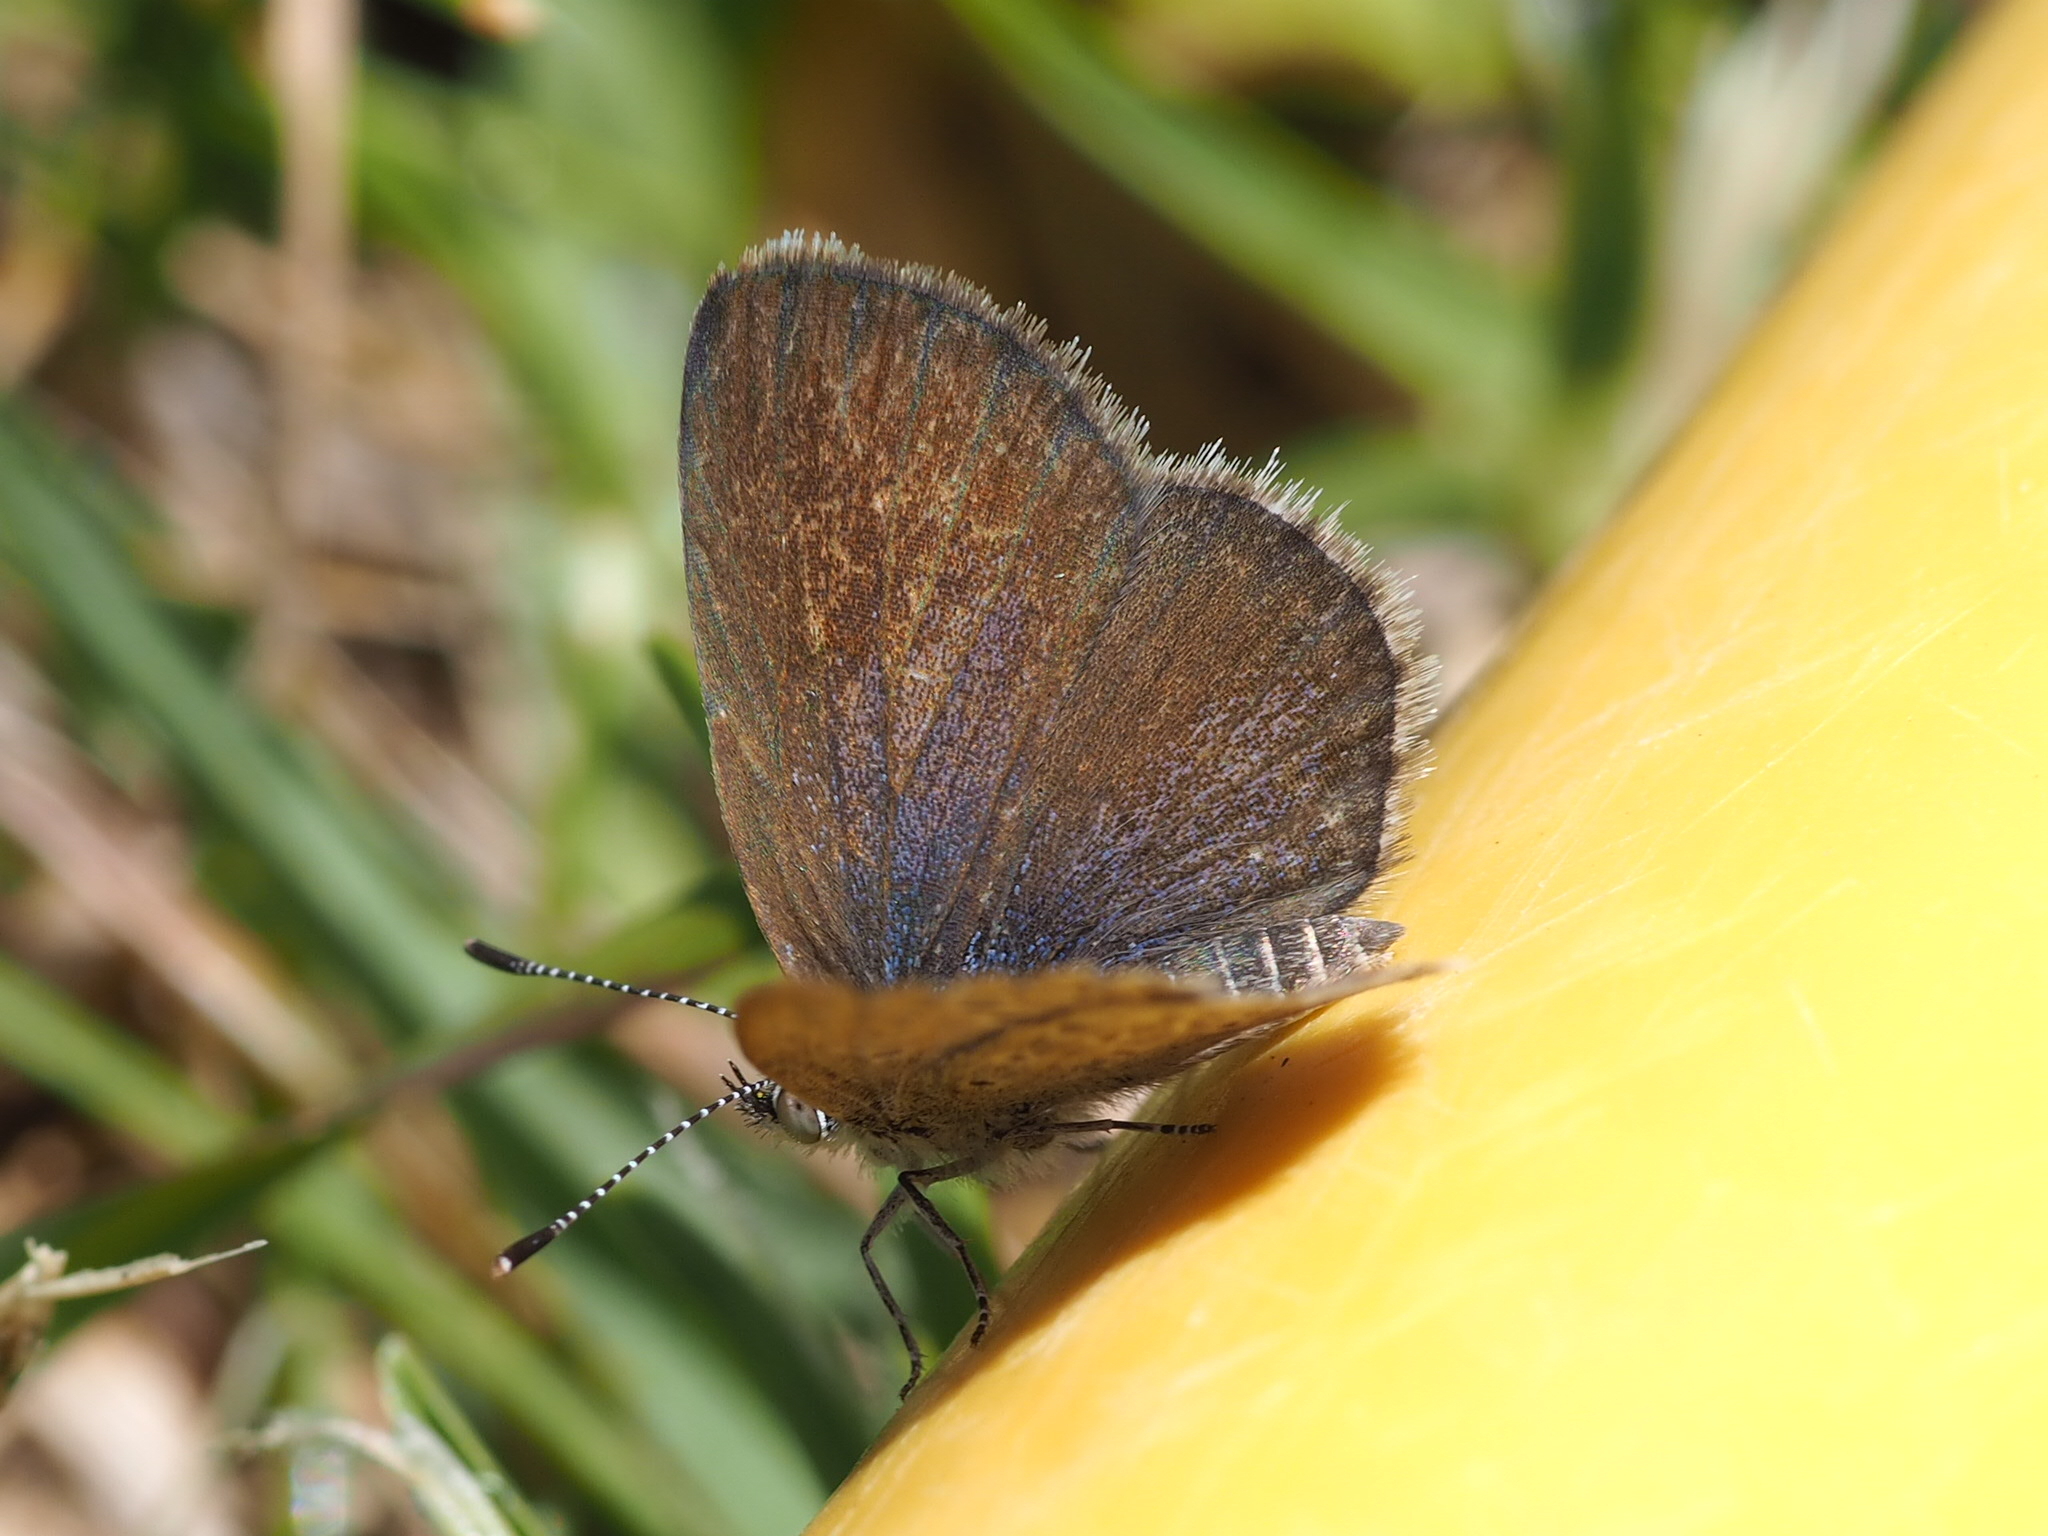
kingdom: Animalia
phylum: Arthropoda
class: Insecta
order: Lepidoptera
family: Lycaenidae
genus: Zizeeria
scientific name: Zizeeria knysna
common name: African grass blue
